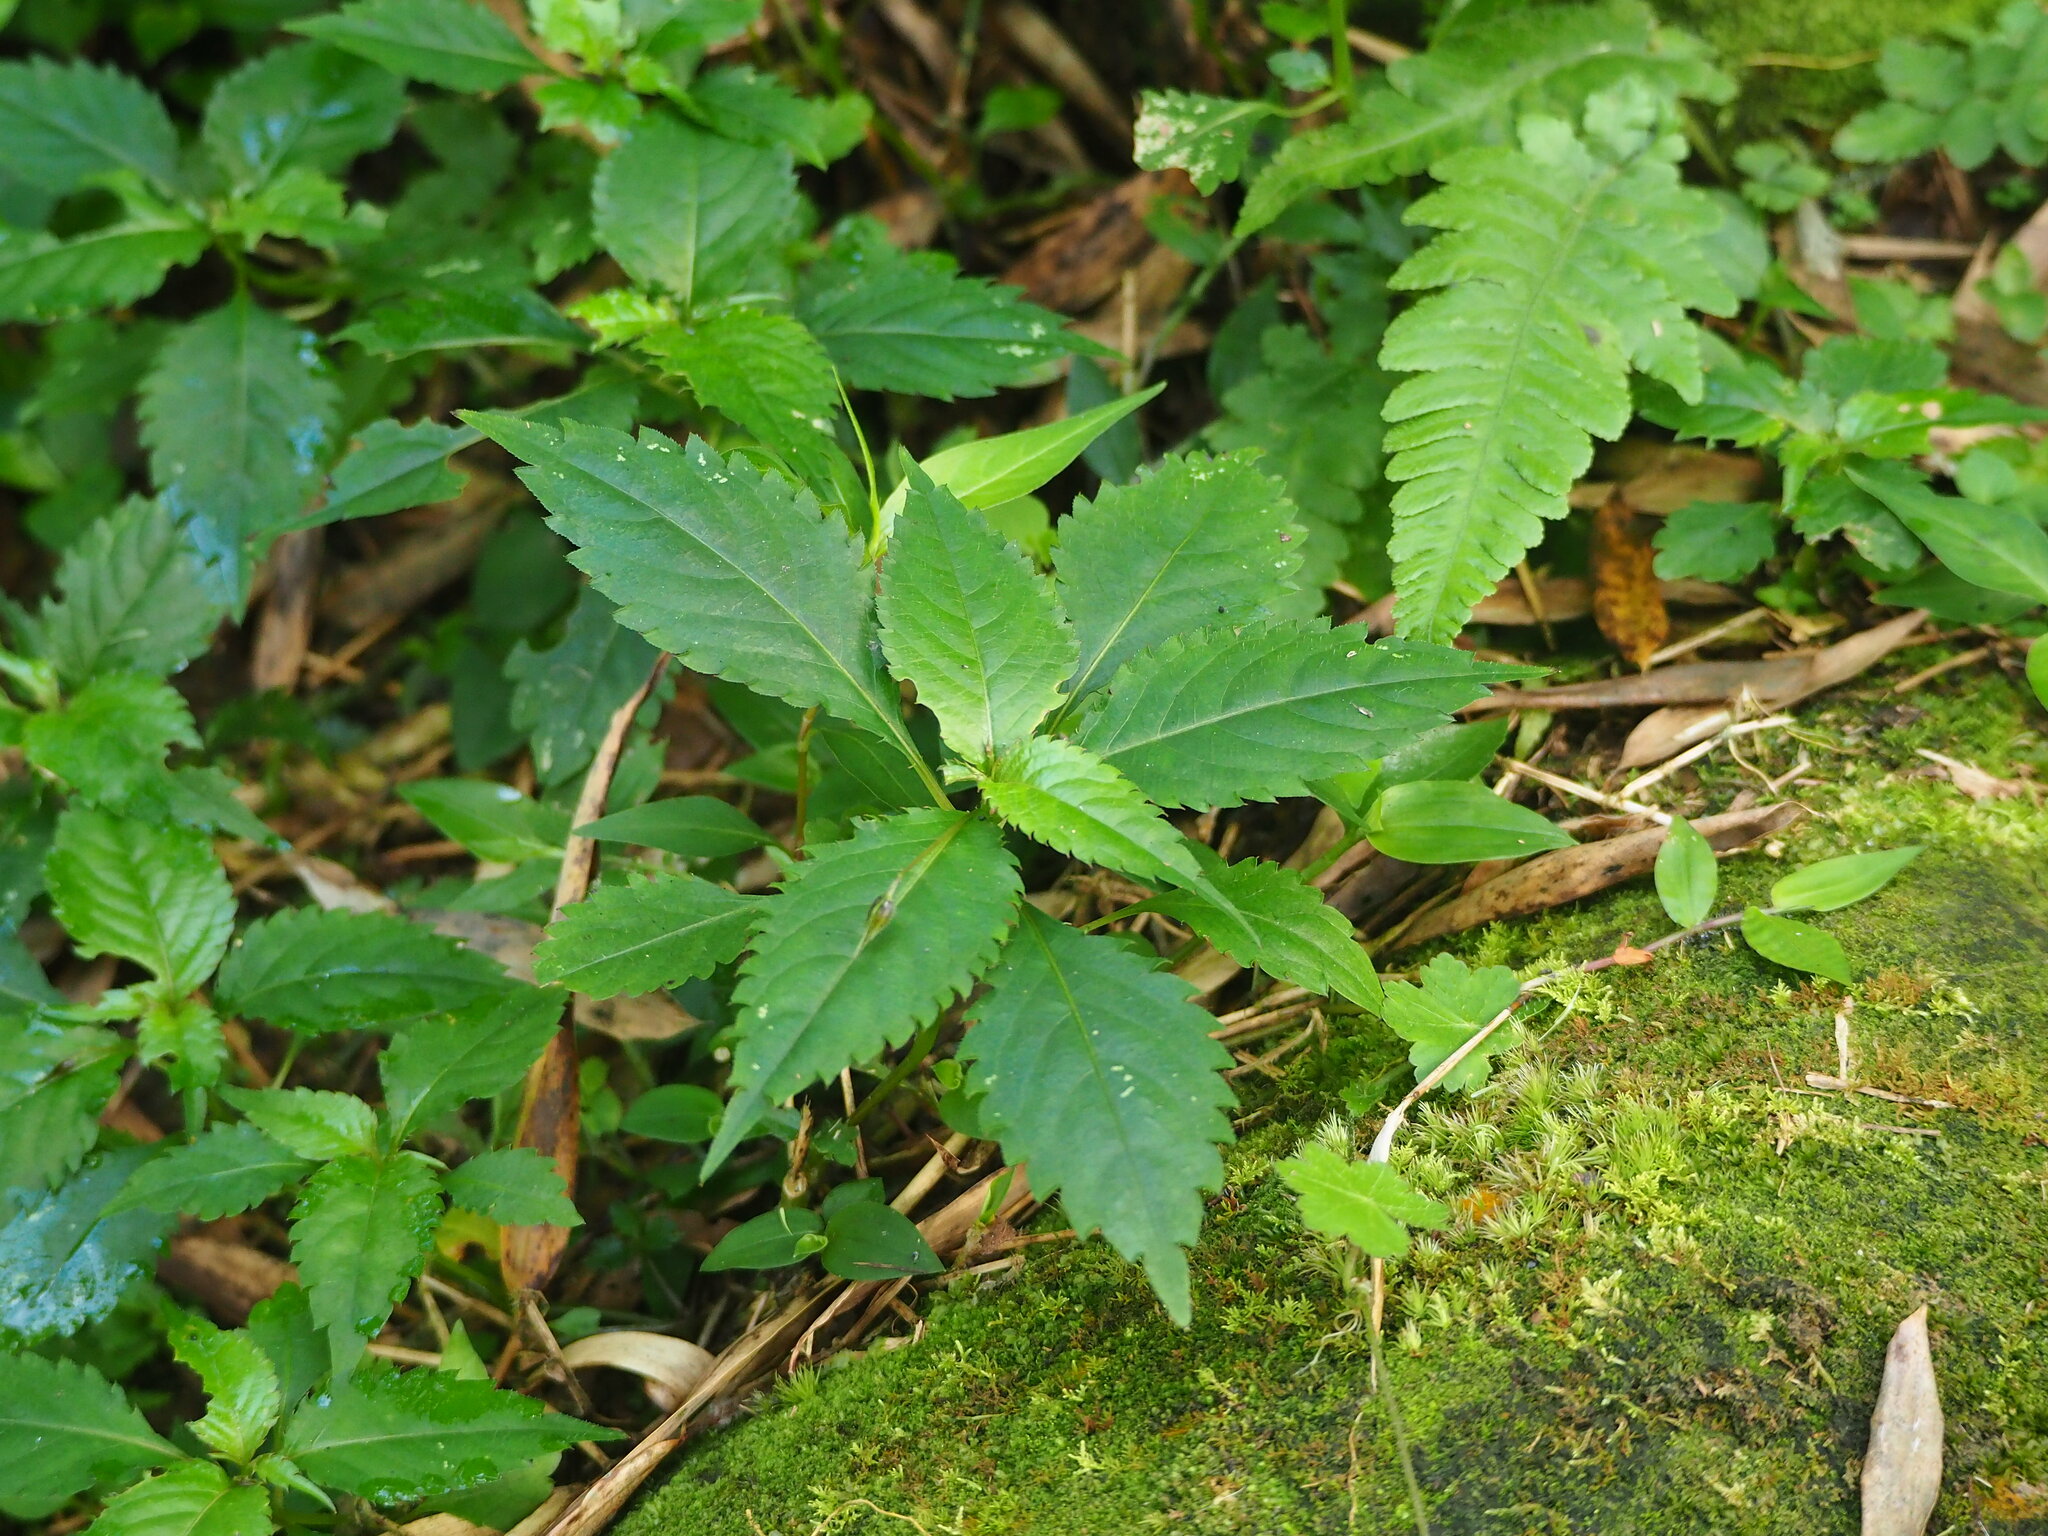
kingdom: Plantae
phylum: Tracheophyta
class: Magnoliopsida
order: Ericales
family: Balsaminaceae
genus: Impatiens
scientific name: Impatiens uniflora
